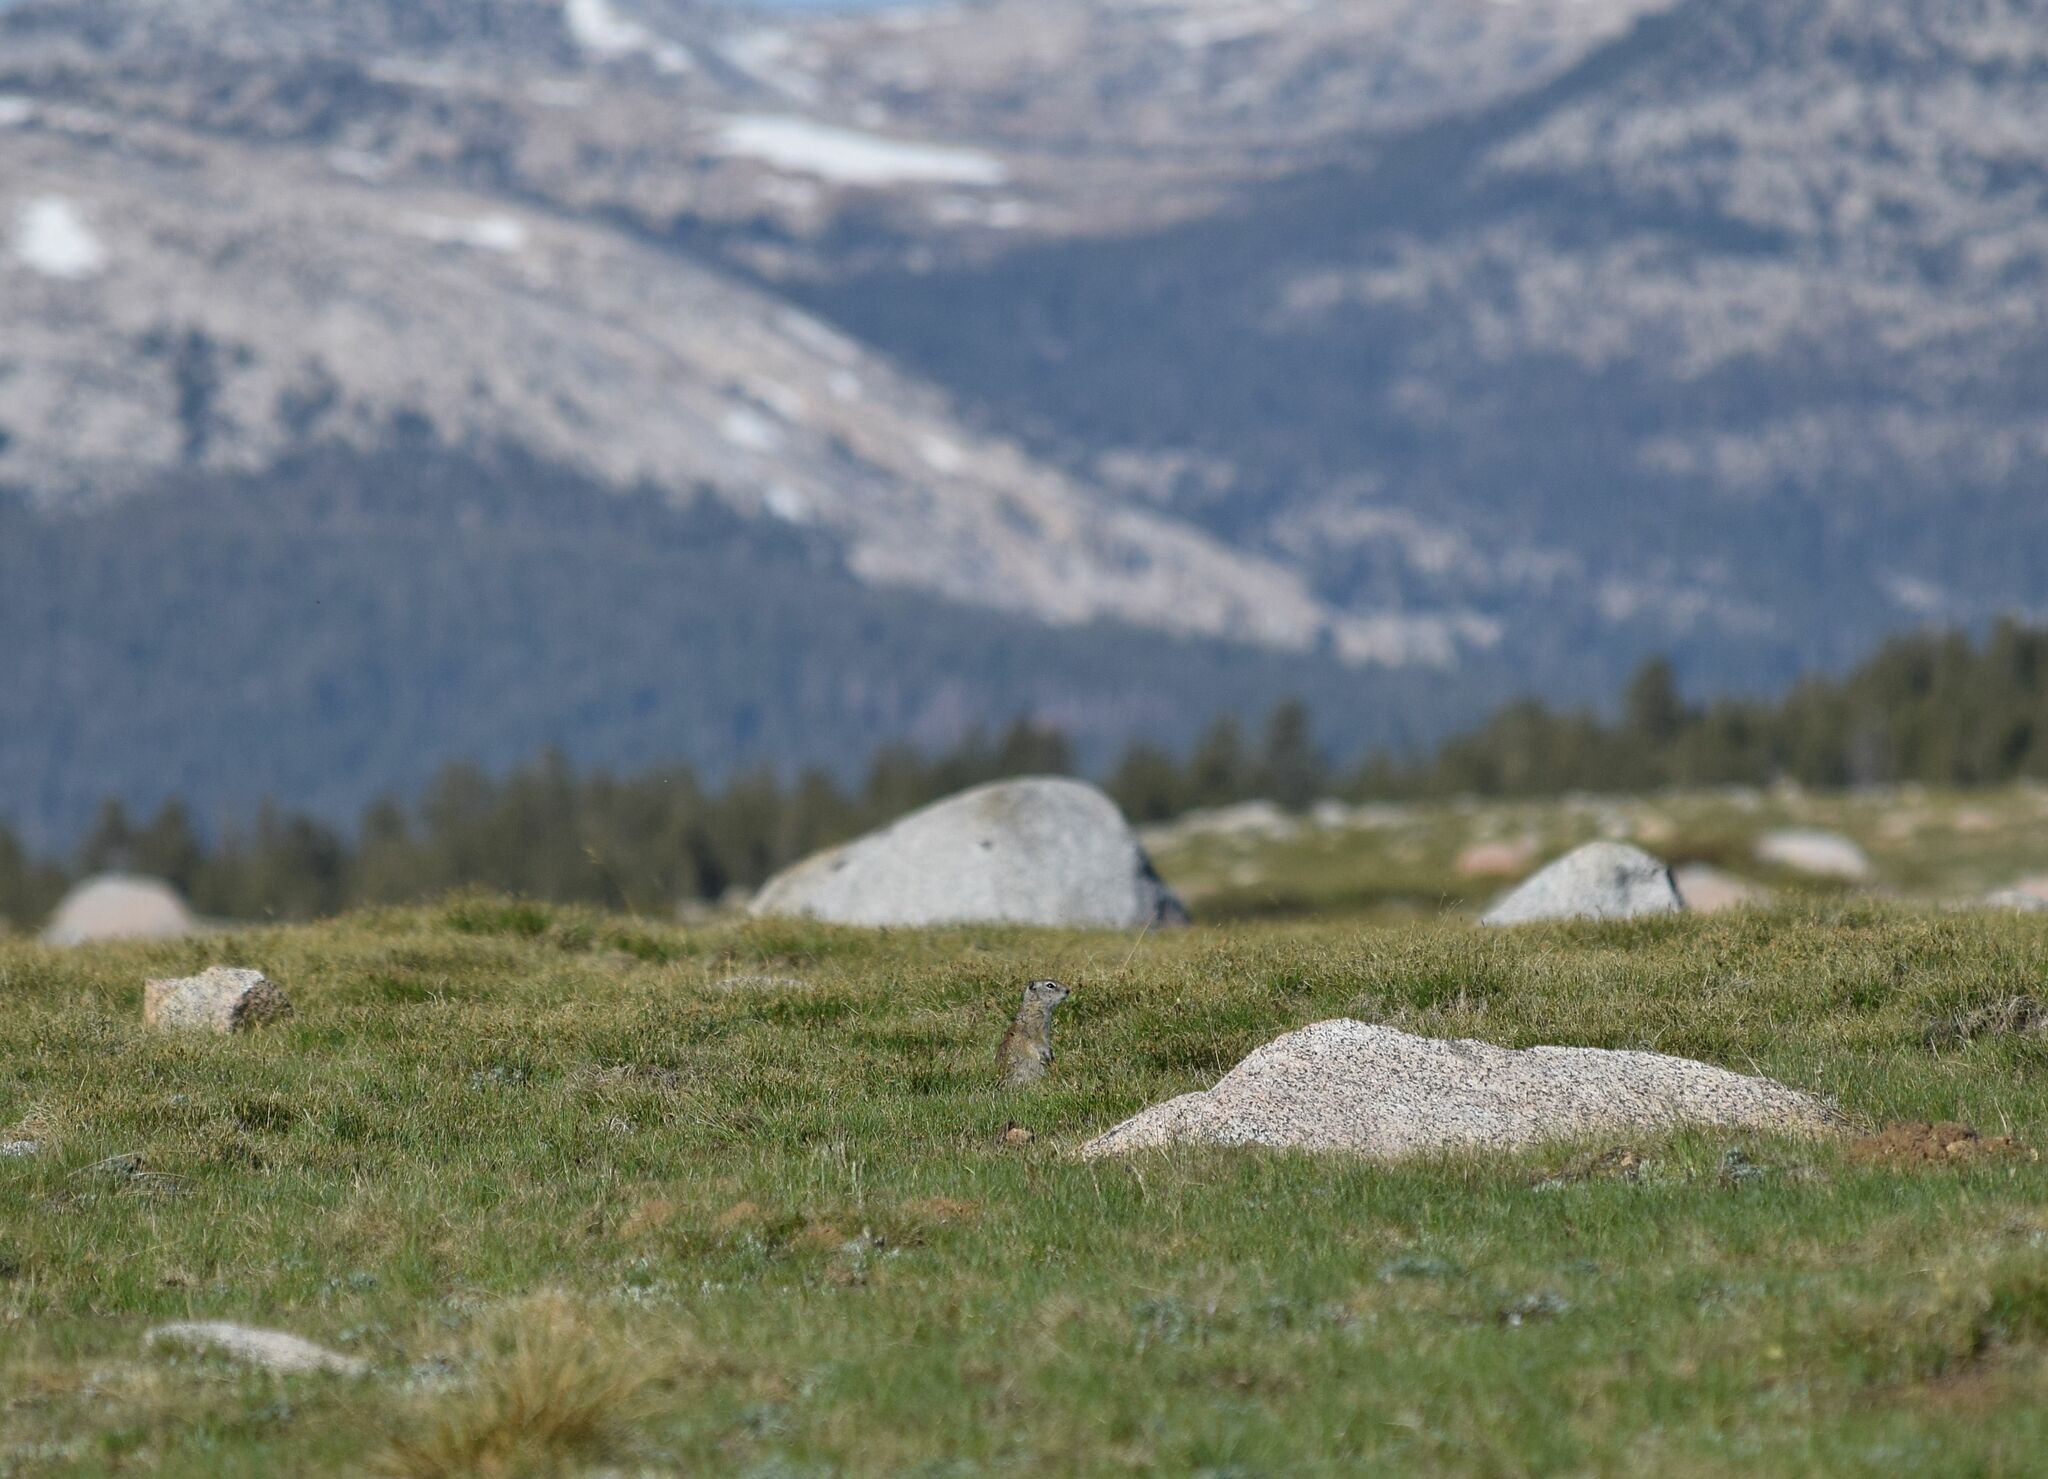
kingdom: Animalia
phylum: Chordata
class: Mammalia
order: Rodentia
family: Sciuridae
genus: Urocitellus
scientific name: Urocitellus beldingi
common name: Belding's ground squirrel
